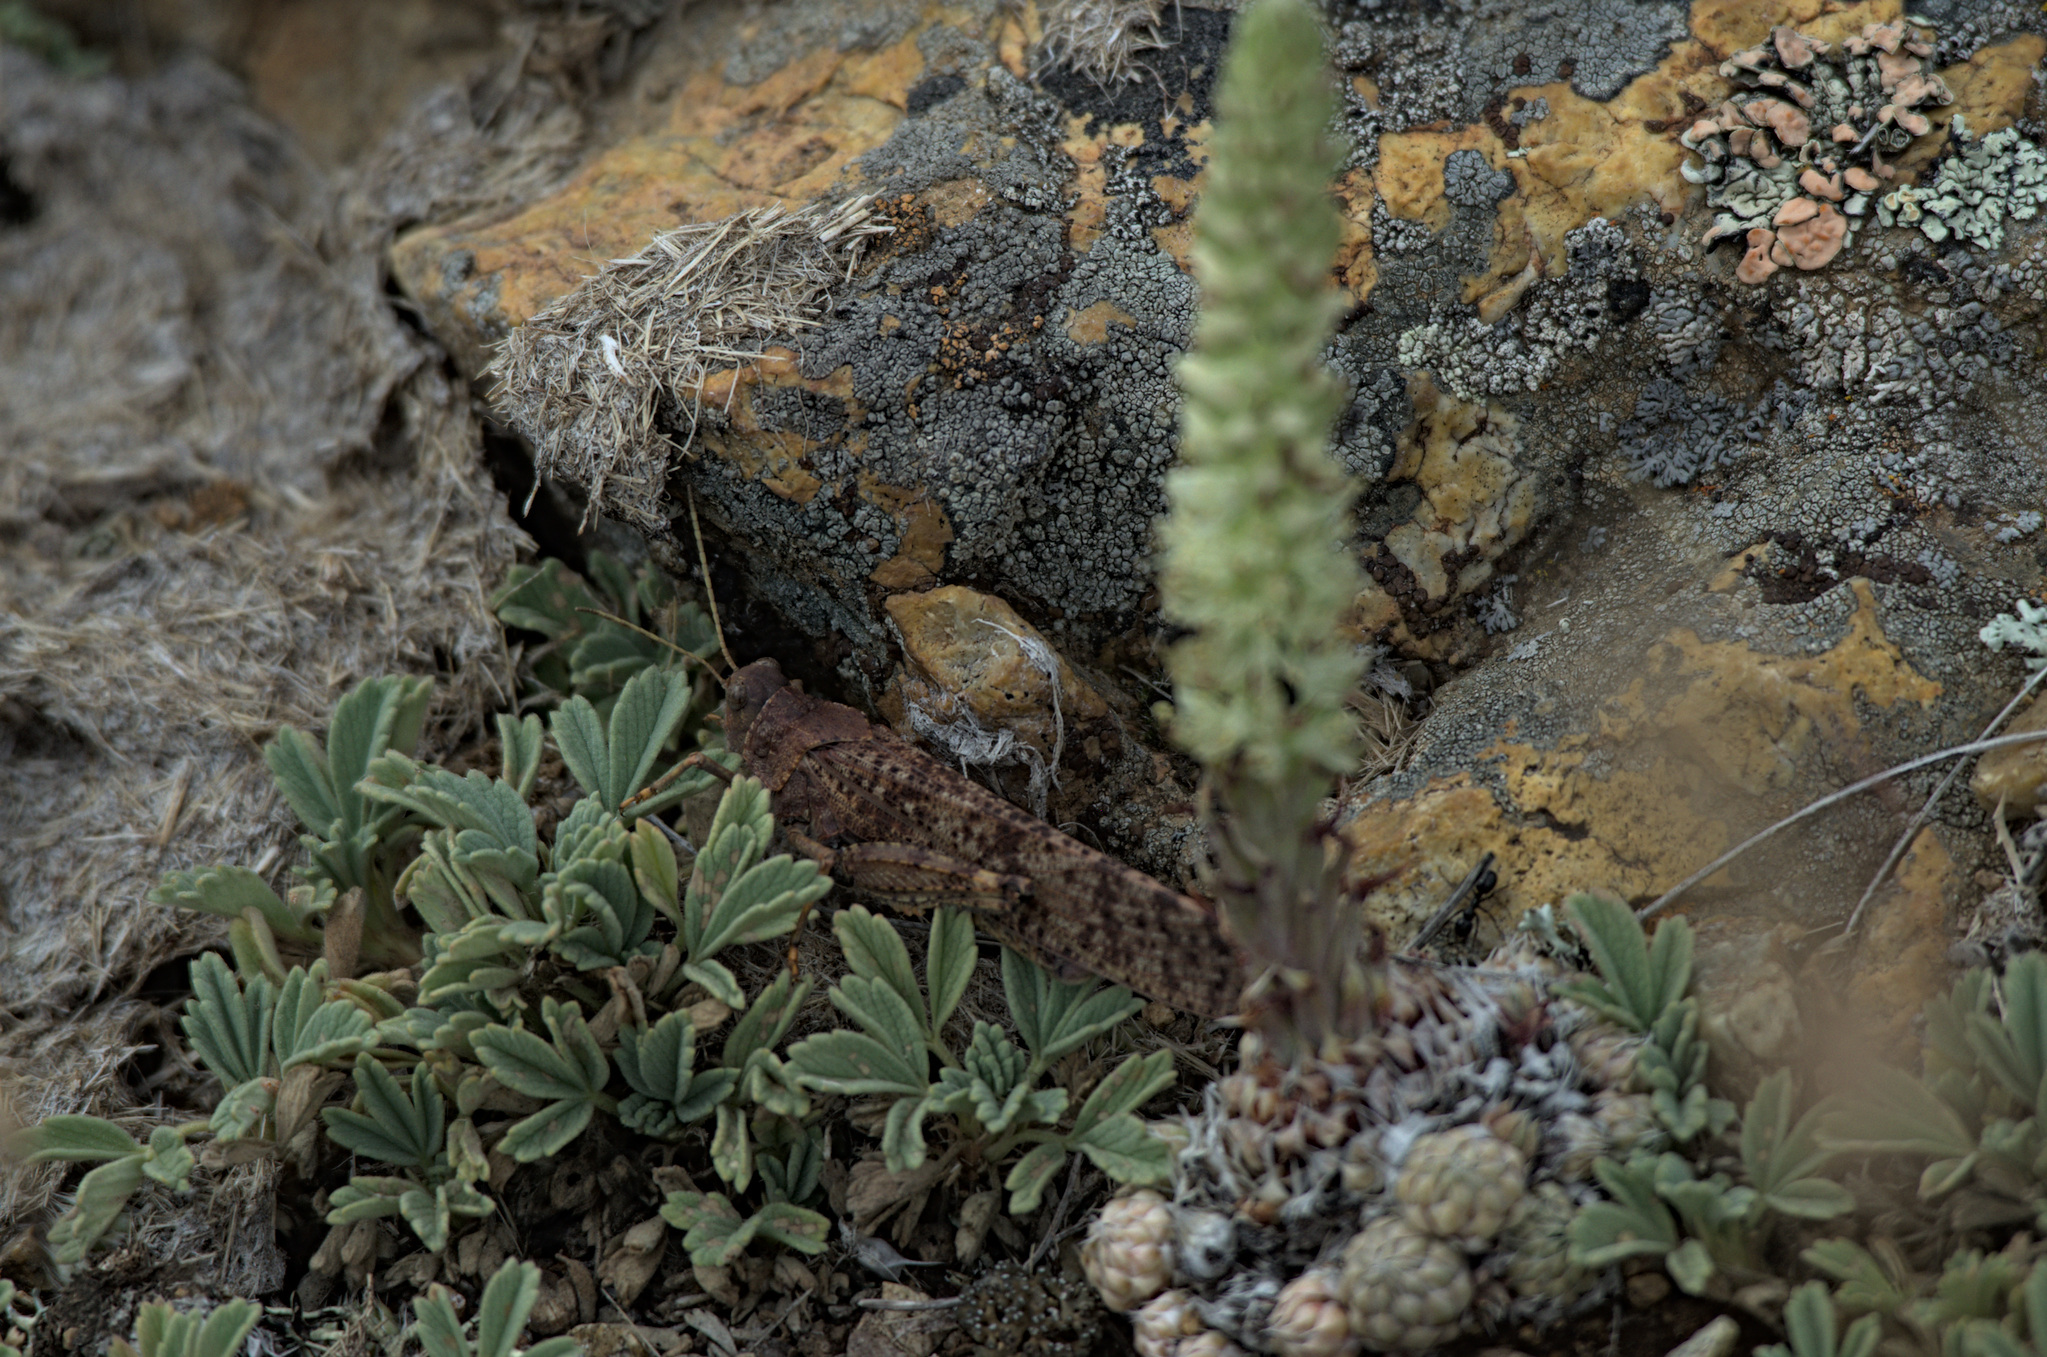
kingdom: Animalia
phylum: Arthropoda
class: Insecta
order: Orthoptera
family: Acrididae
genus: Bryodema
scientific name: Bryodema gebleri
